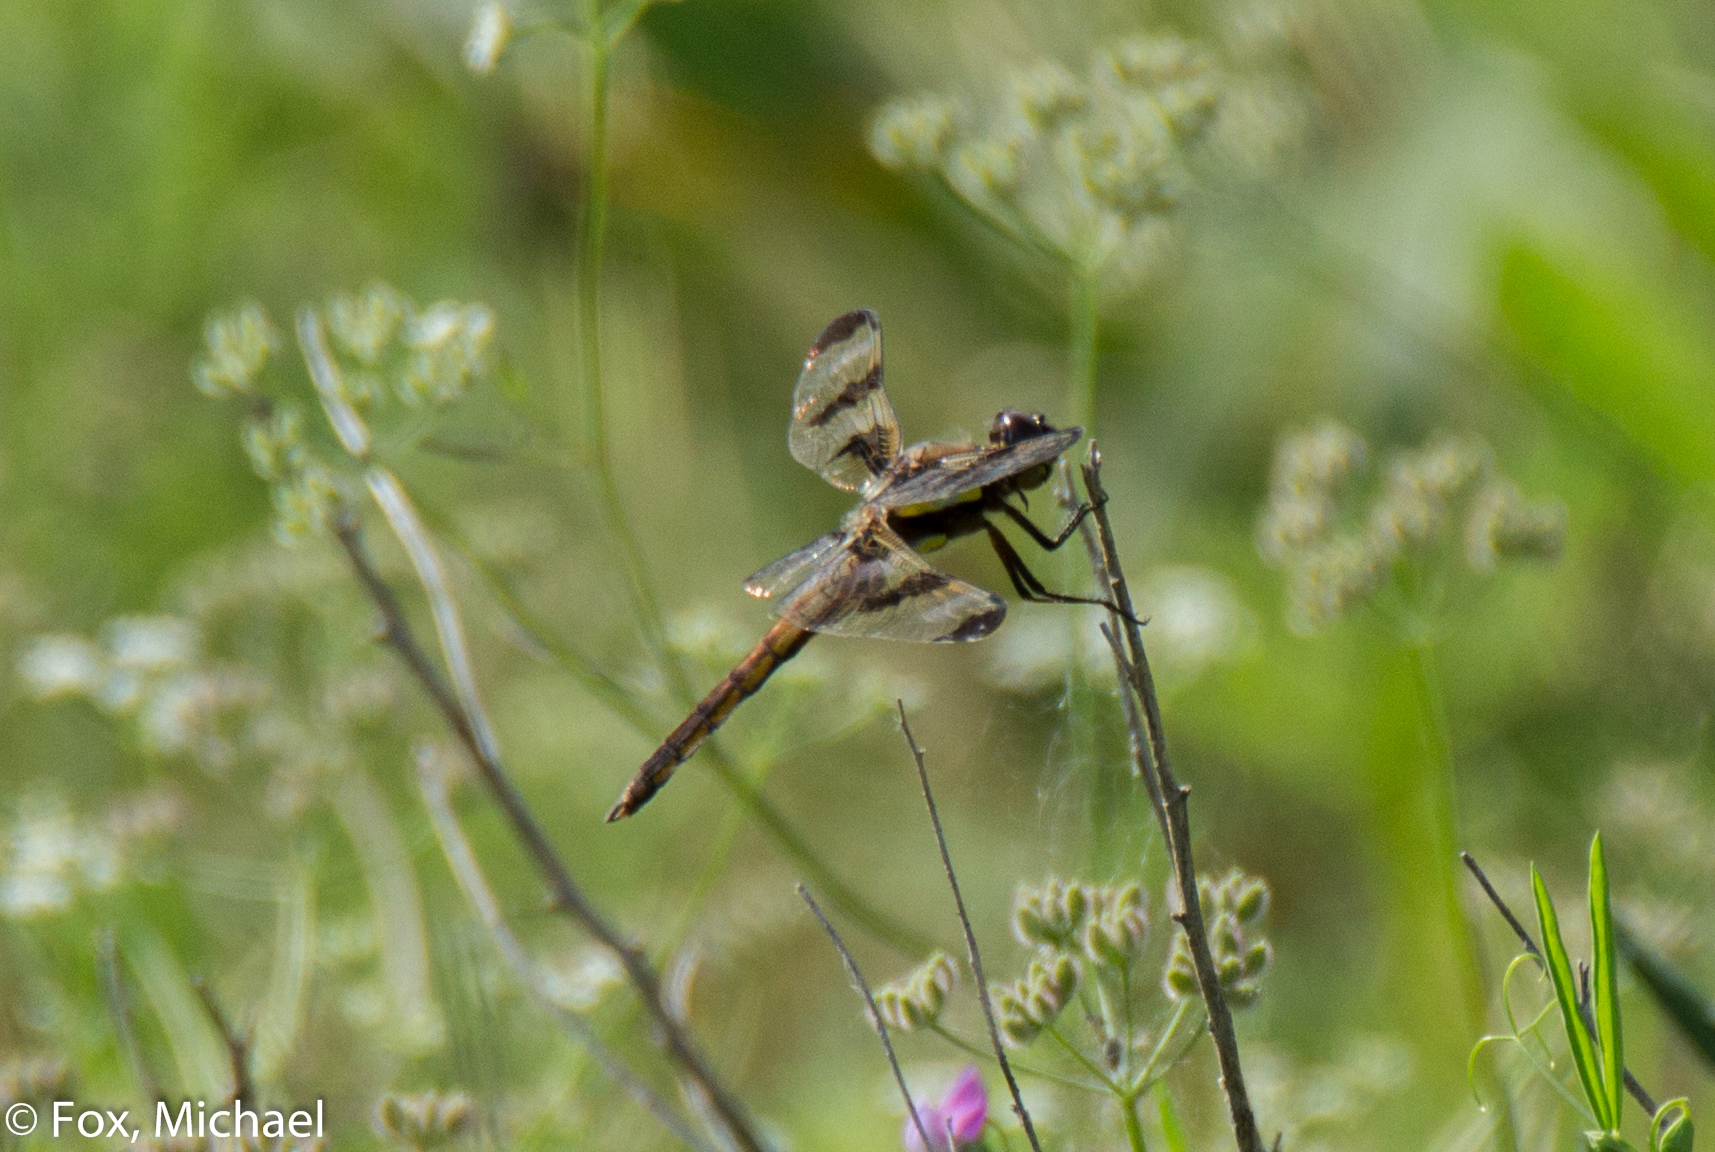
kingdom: Animalia
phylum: Arthropoda
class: Insecta
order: Odonata
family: Libellulidae
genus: Libellula
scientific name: Libellula pulchella
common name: Twelve-spotted skimmer
